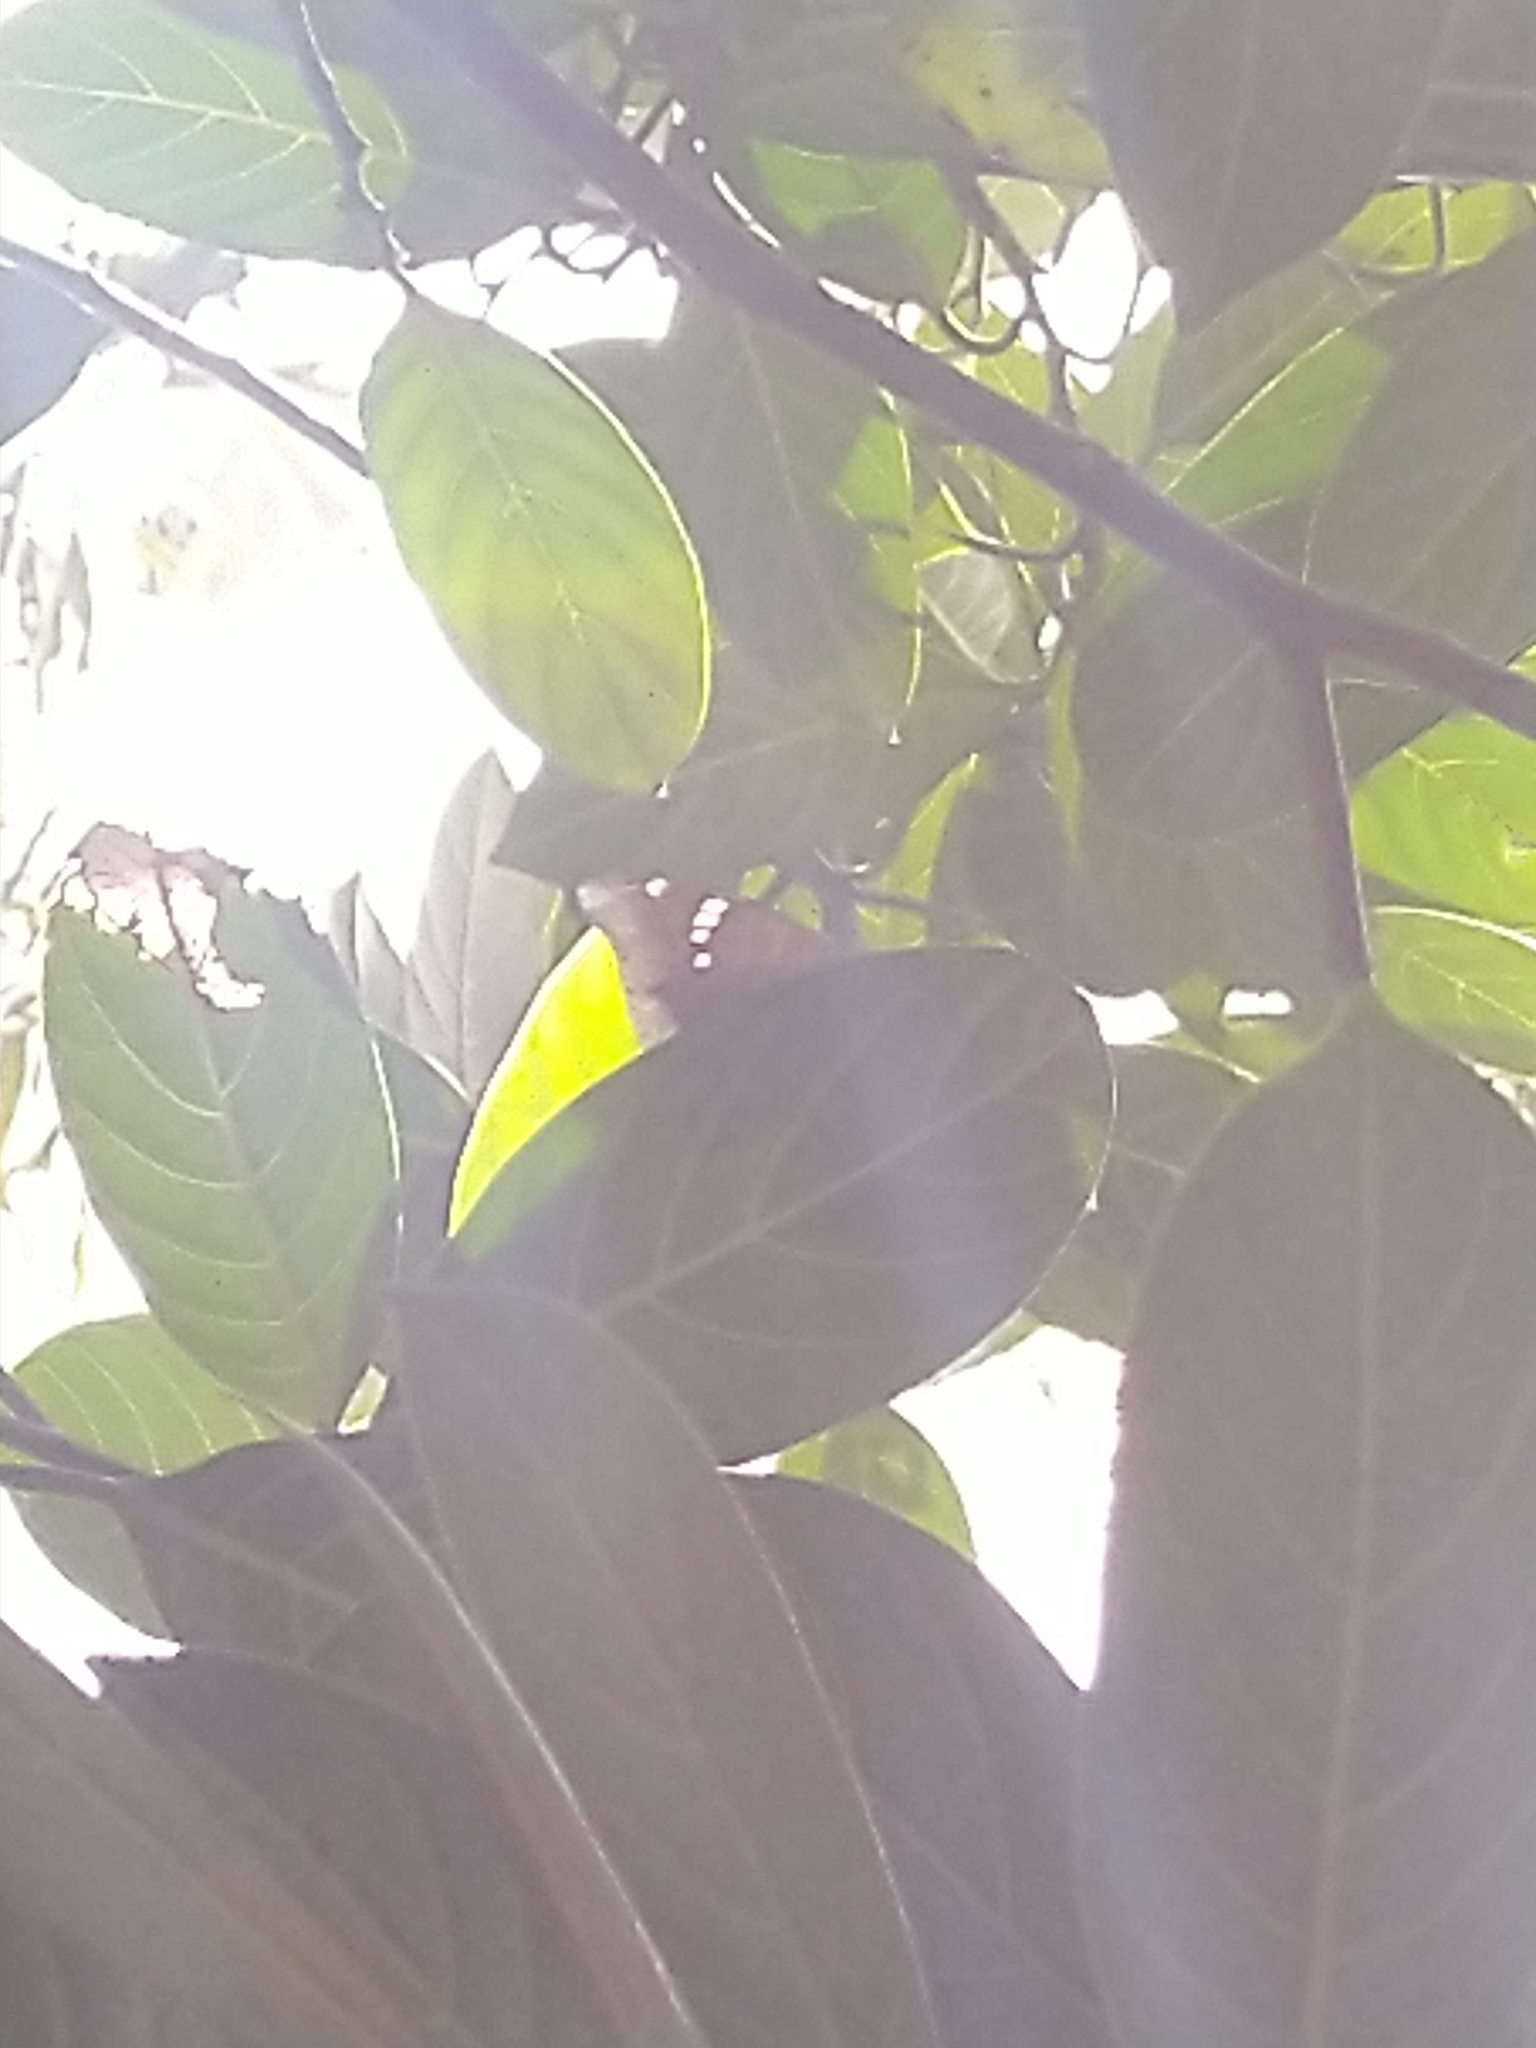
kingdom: Animalia
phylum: Arthropoda
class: Insecta
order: Lepidoptera
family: Nymphalidae
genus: Euthalia
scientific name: Euthalia aconthea
